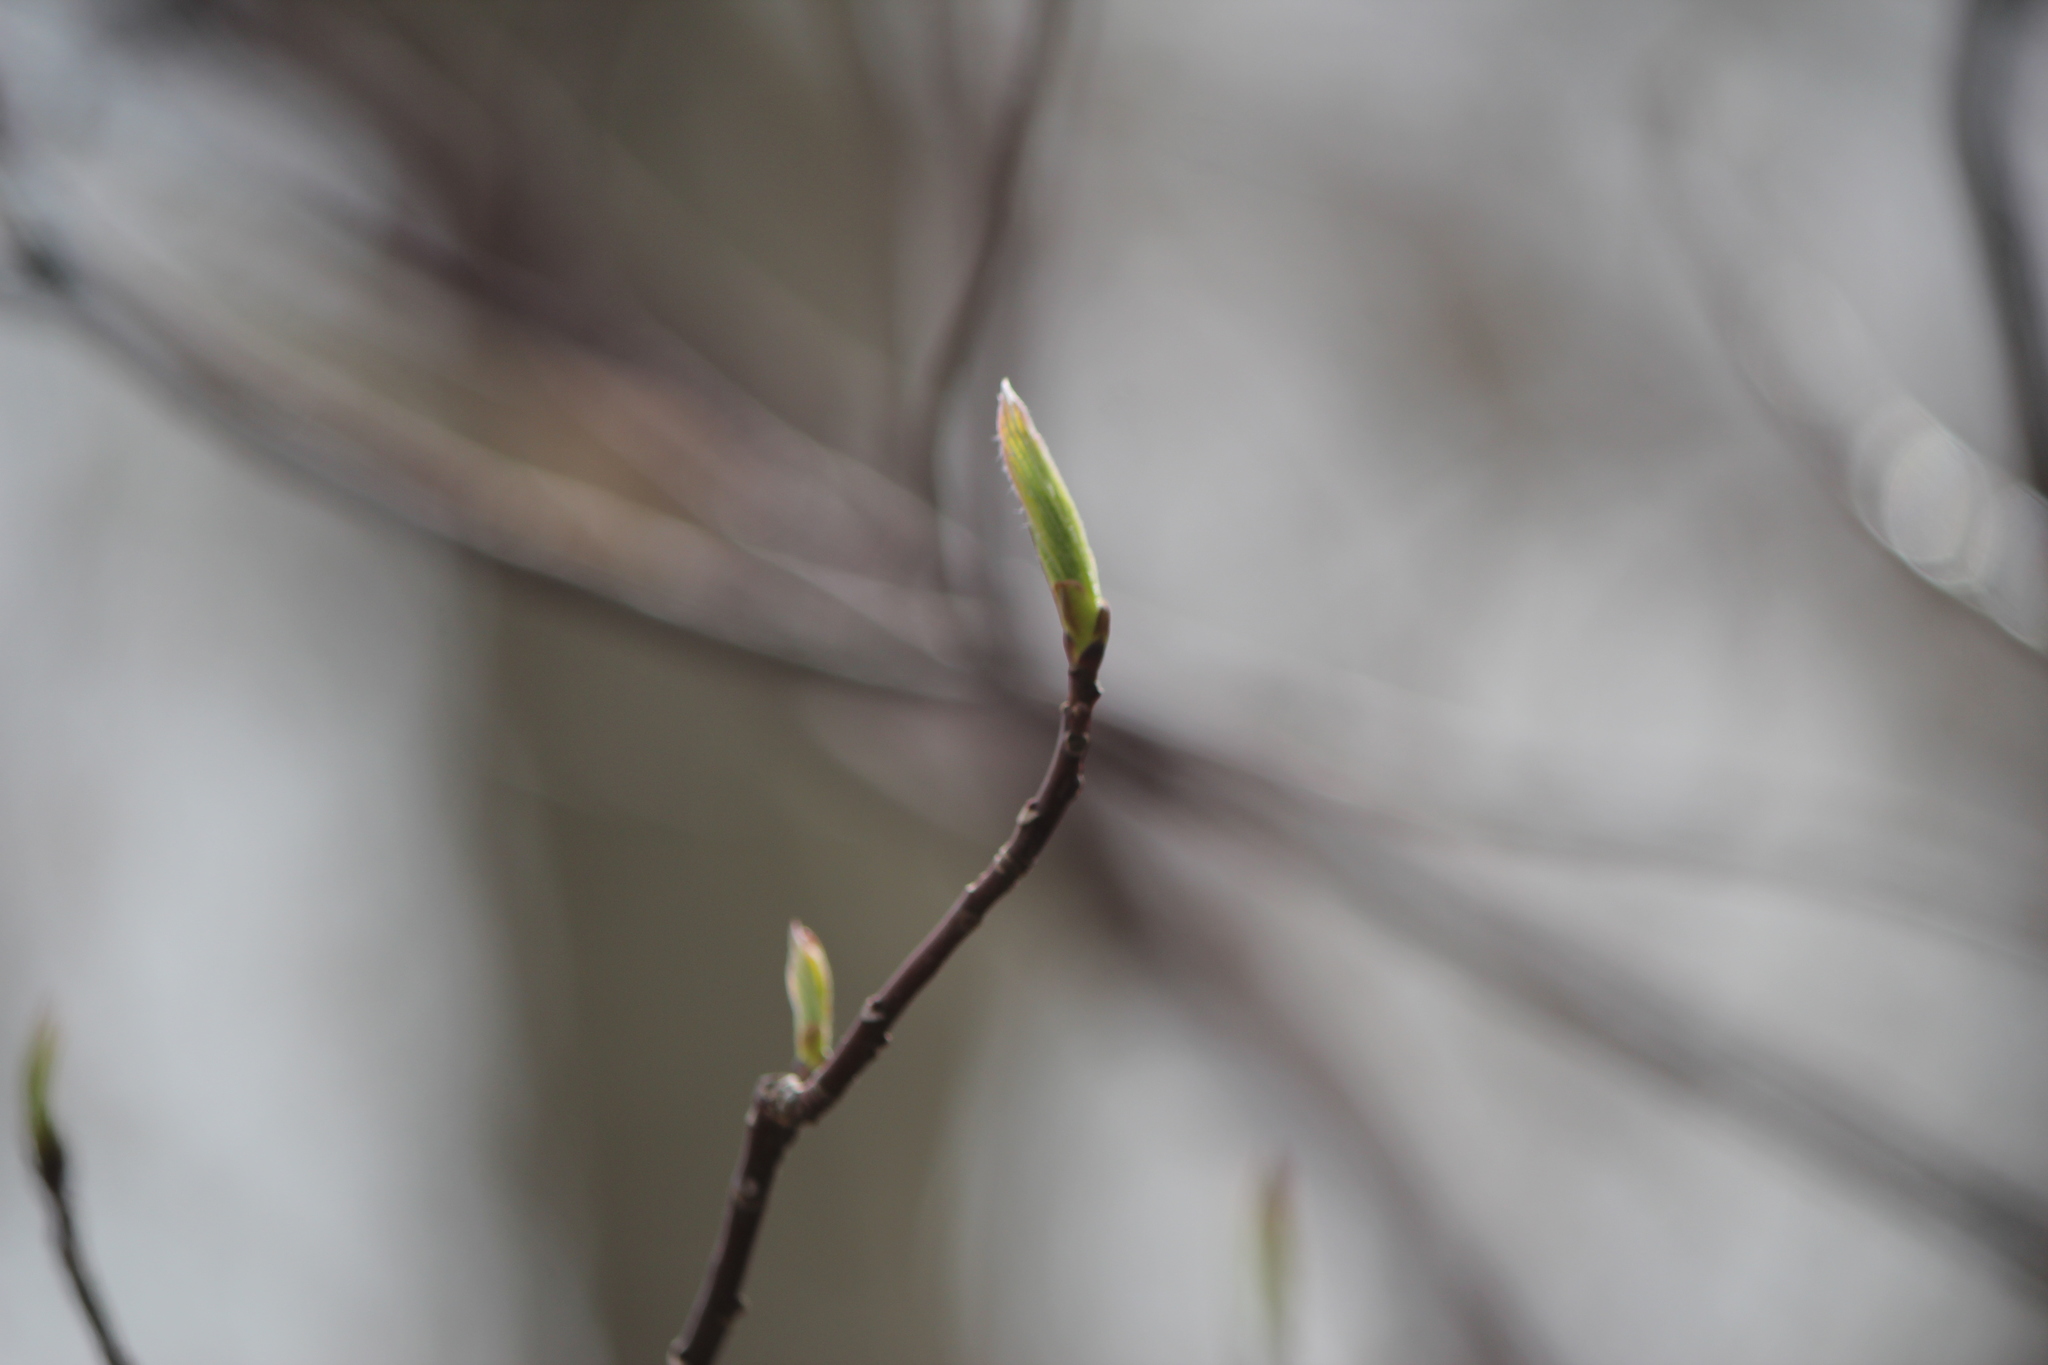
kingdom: Plantae
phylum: Tracheophyta
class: Magnoliopsida
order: Cornales
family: Cornaceae
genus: Cornus
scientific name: Cornus alternifolia
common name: Pagoda dogwood
